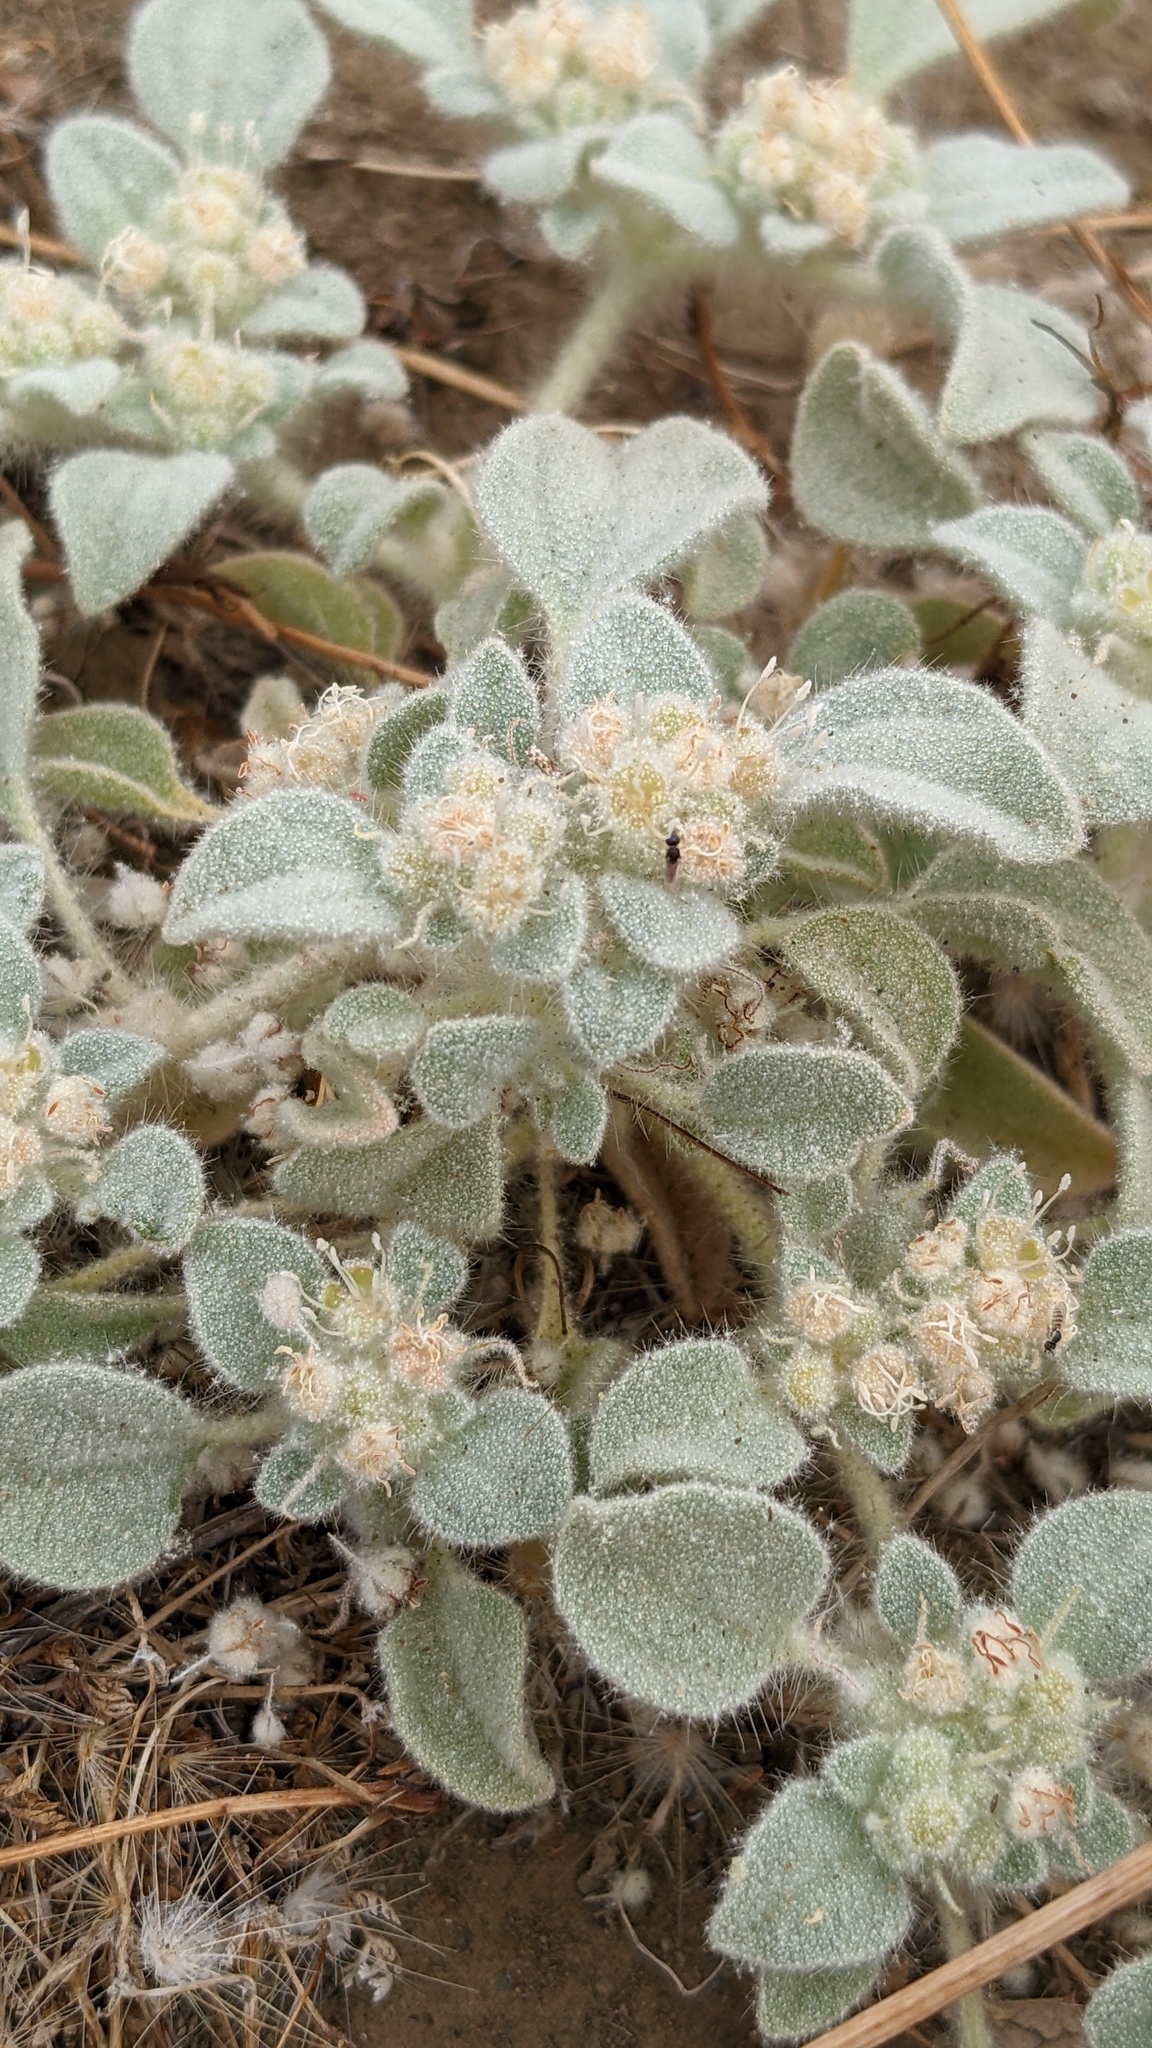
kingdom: Plantae
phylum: Tracheophyta
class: Magnoliopsida
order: Malpighiales
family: Euphorbiaceae
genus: Croton
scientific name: Croton setiger
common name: Dove weed
